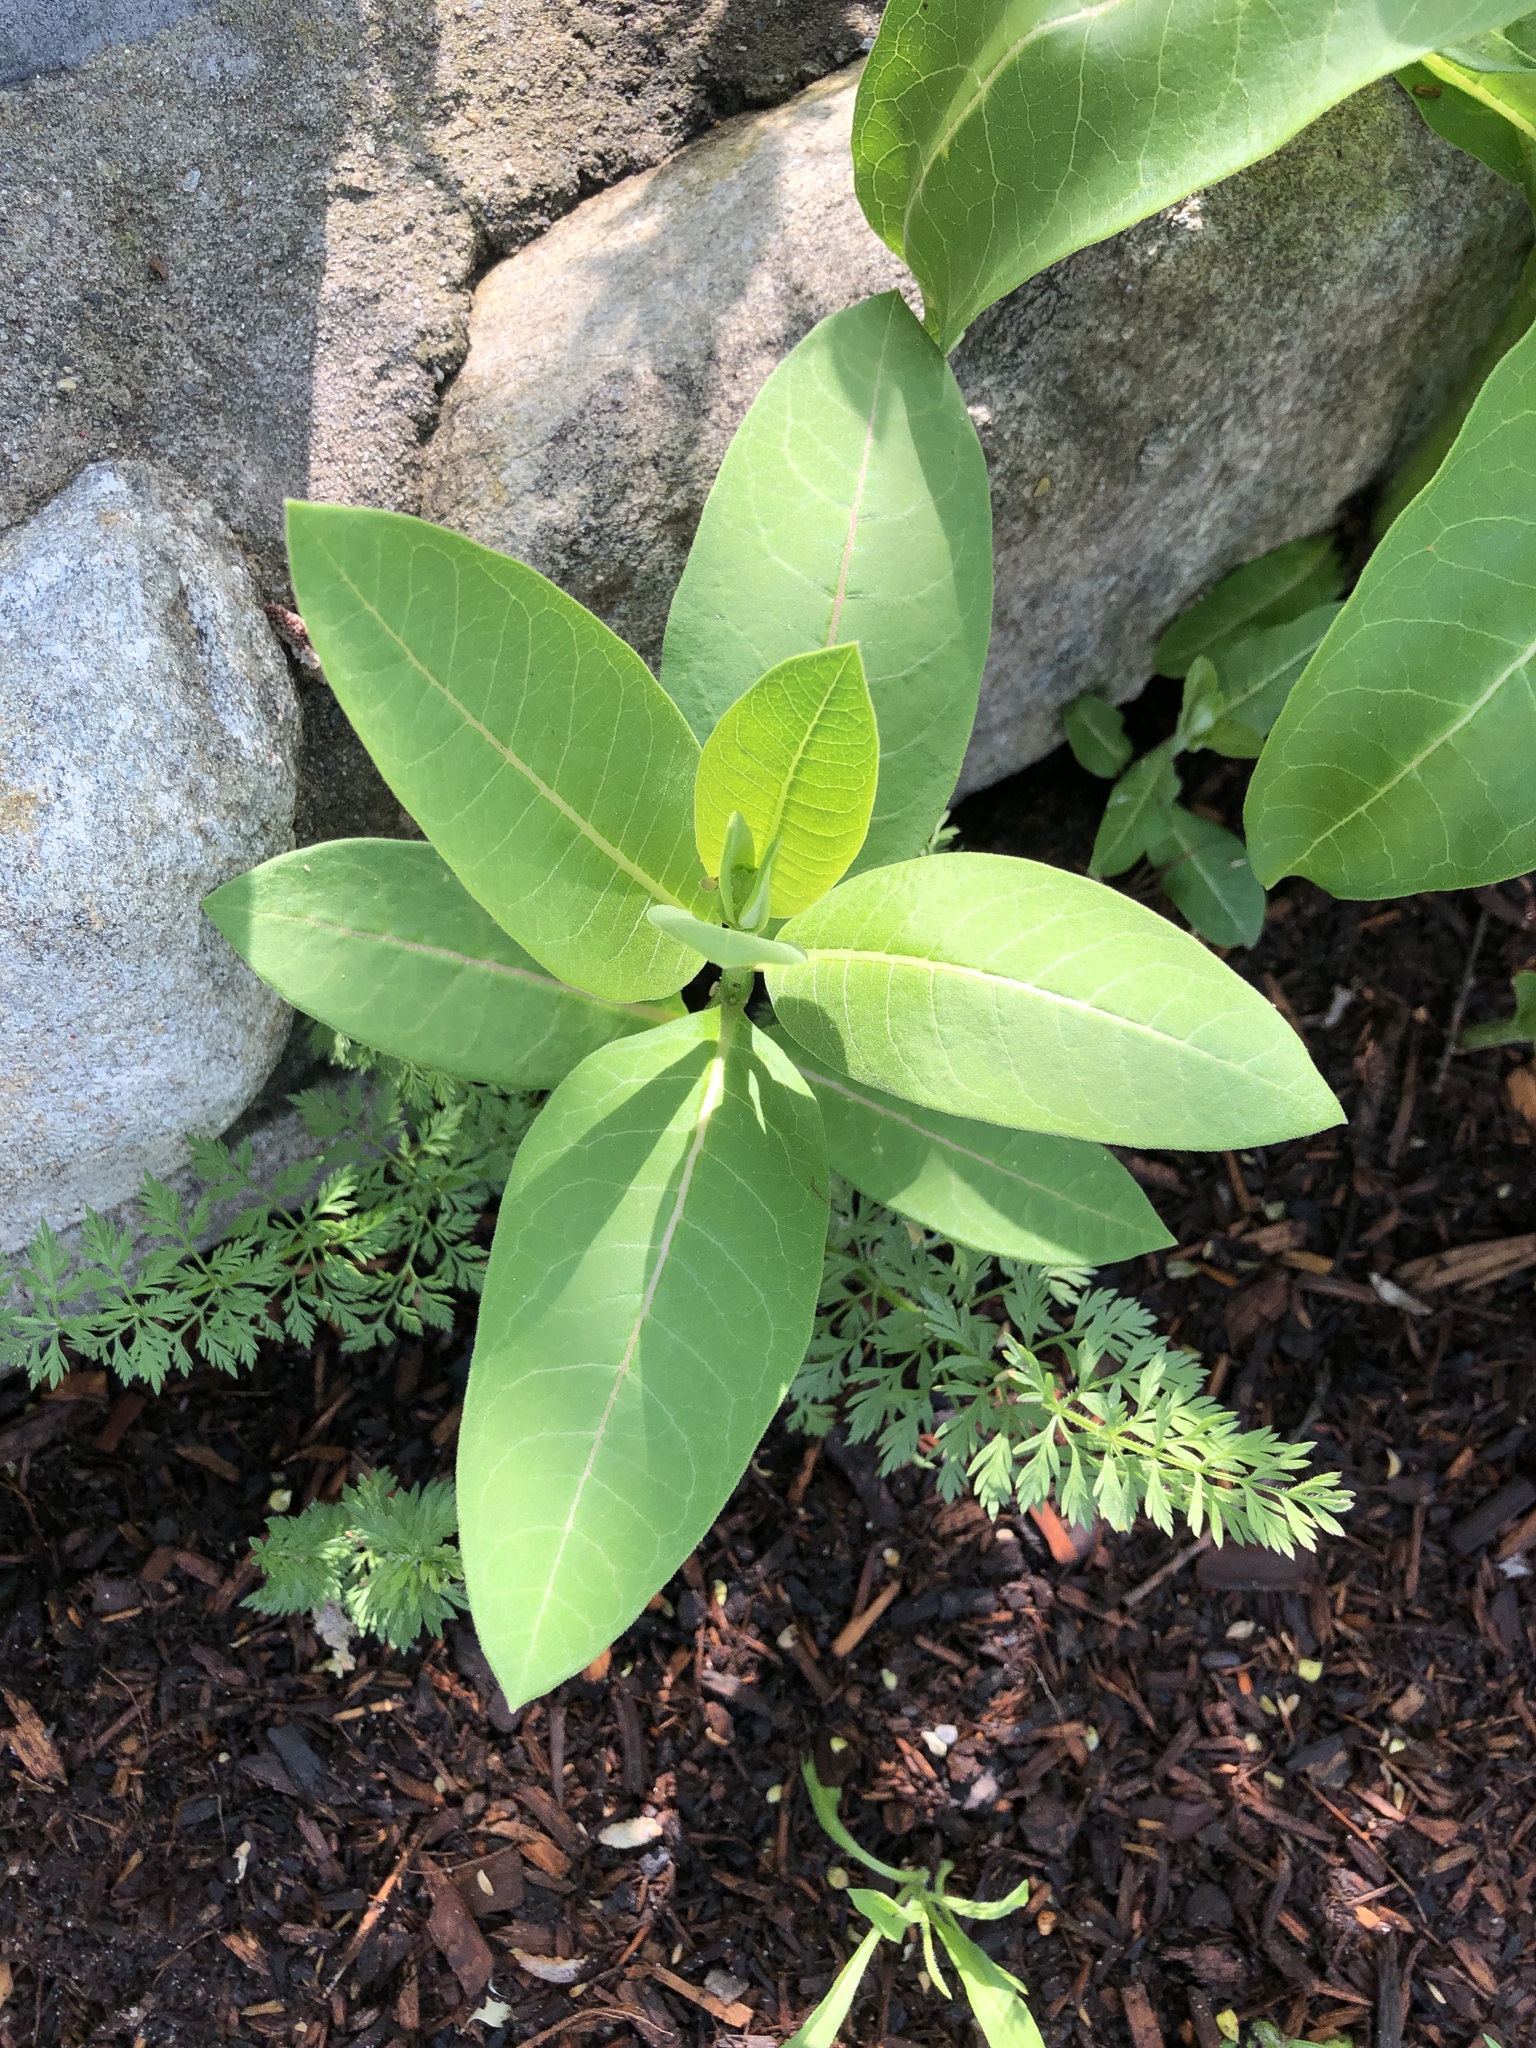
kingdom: Plantae
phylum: Tracheophyta
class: Magnoliopsida
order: Gentianales
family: Apocynaceae
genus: Asclepias
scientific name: Asclepias syriaca
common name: Common milkweed
